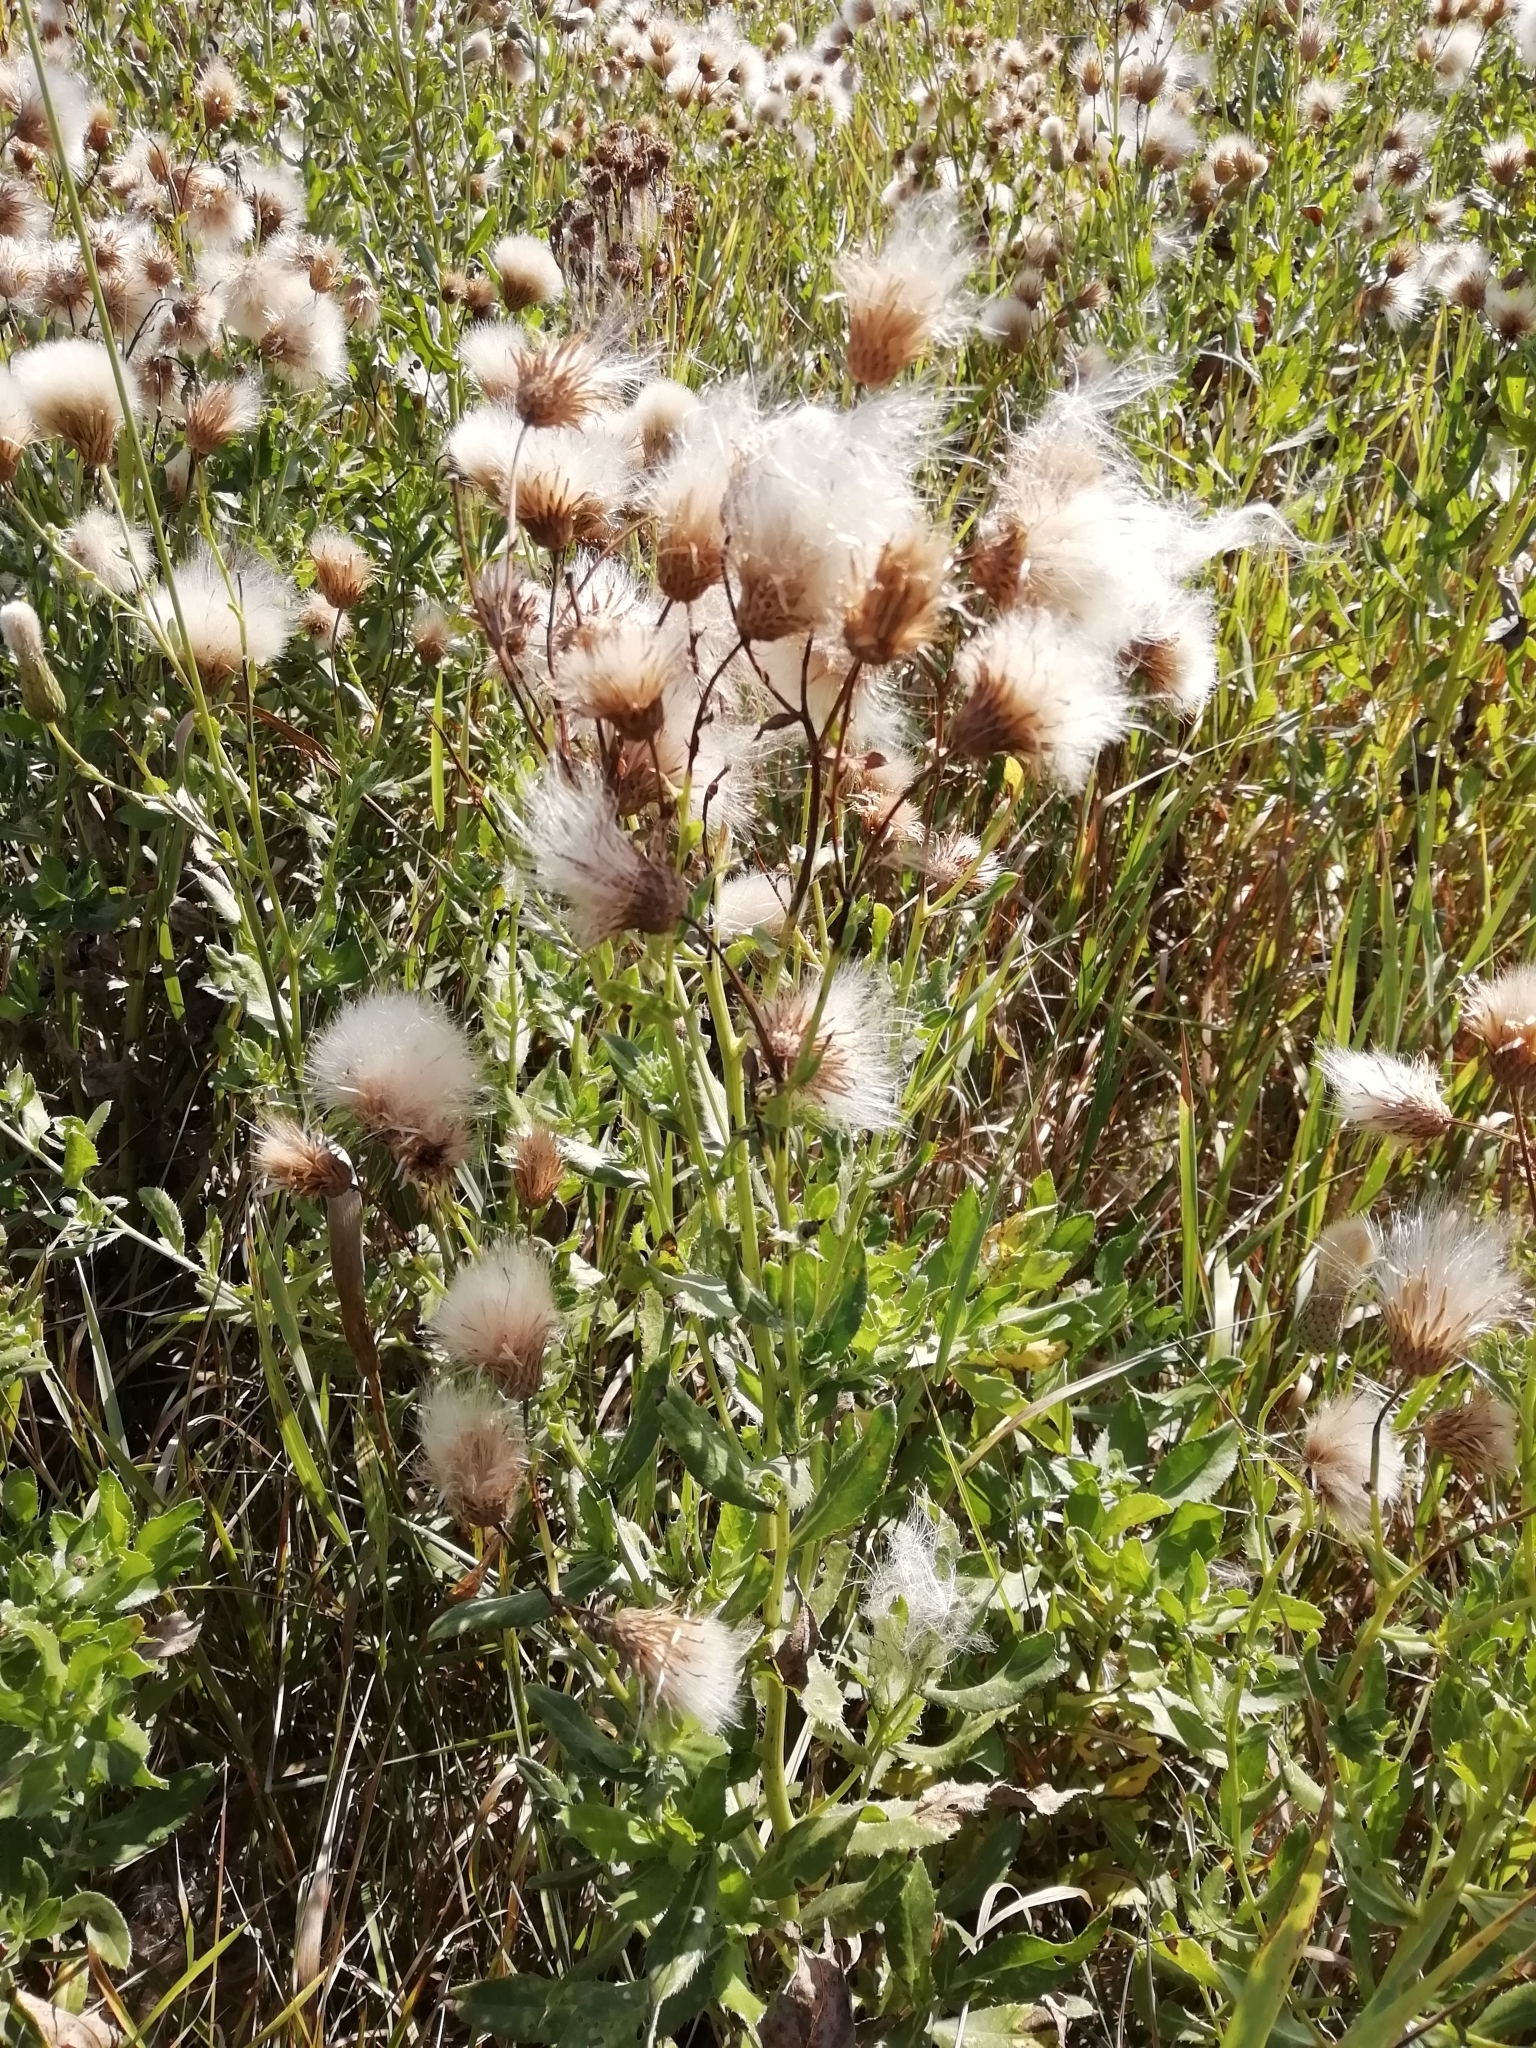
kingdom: Plantae
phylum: Tracheophyta
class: Magnoliopsida
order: Asterales
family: Asteraceae
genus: Cirsium
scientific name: Cirsium arvense
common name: Creeping thistle
